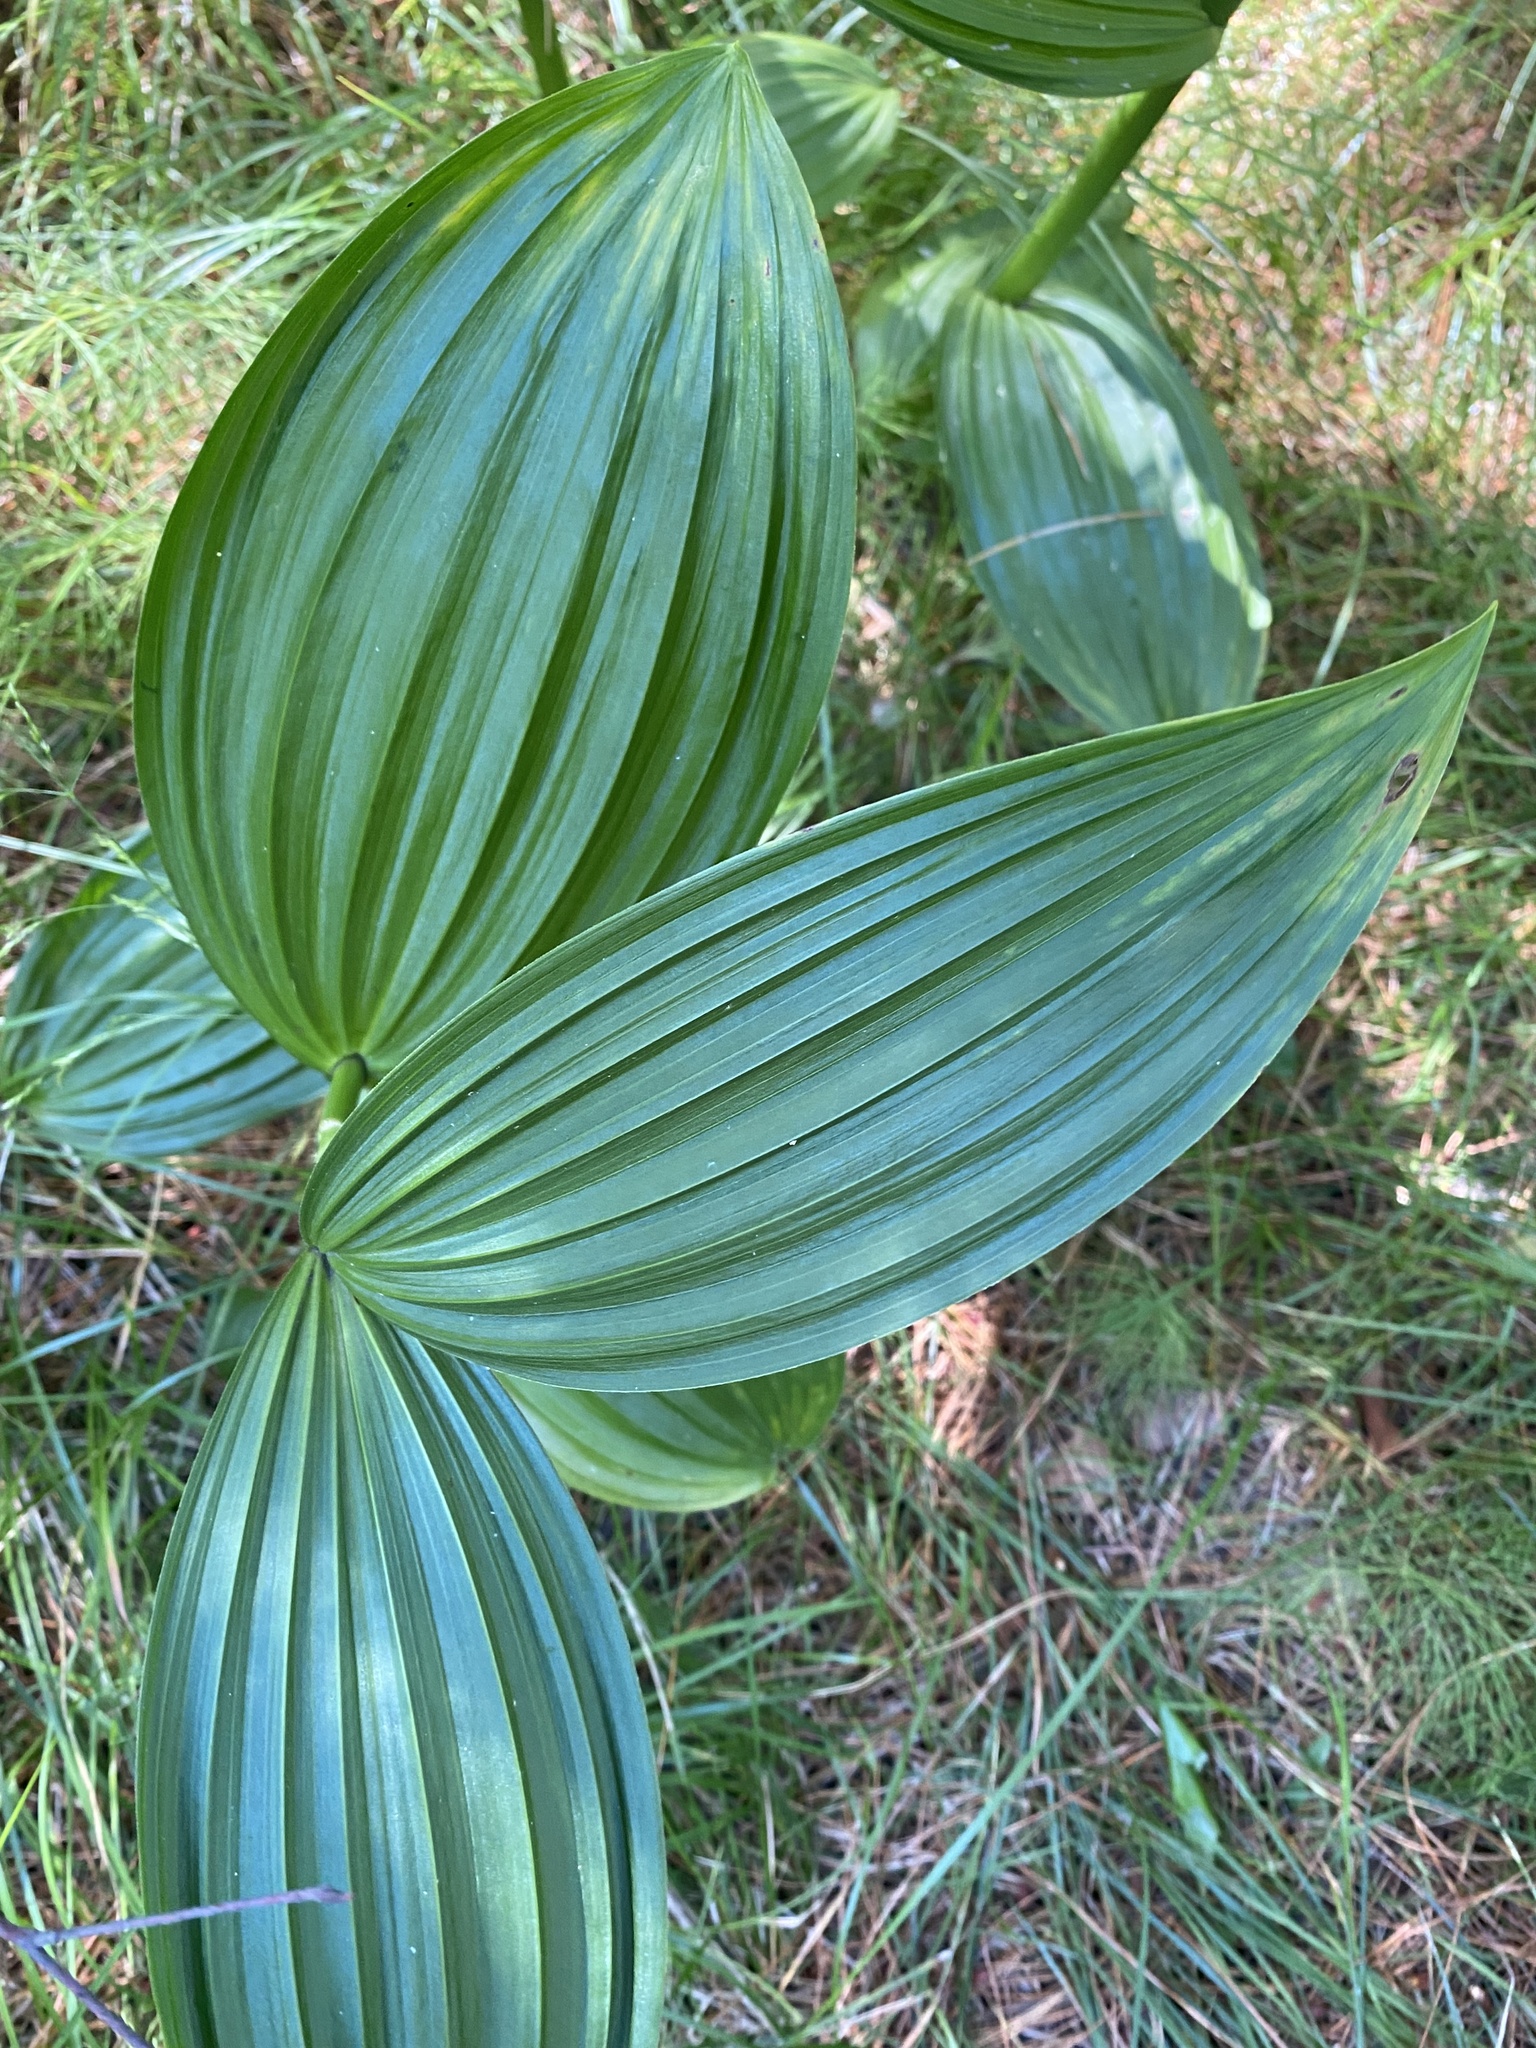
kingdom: Plantae
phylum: Tracheophyta
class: Liliopsida
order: Liliales
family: Melanthiaceae
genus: Veratrum
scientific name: Veratrum lobelianum
